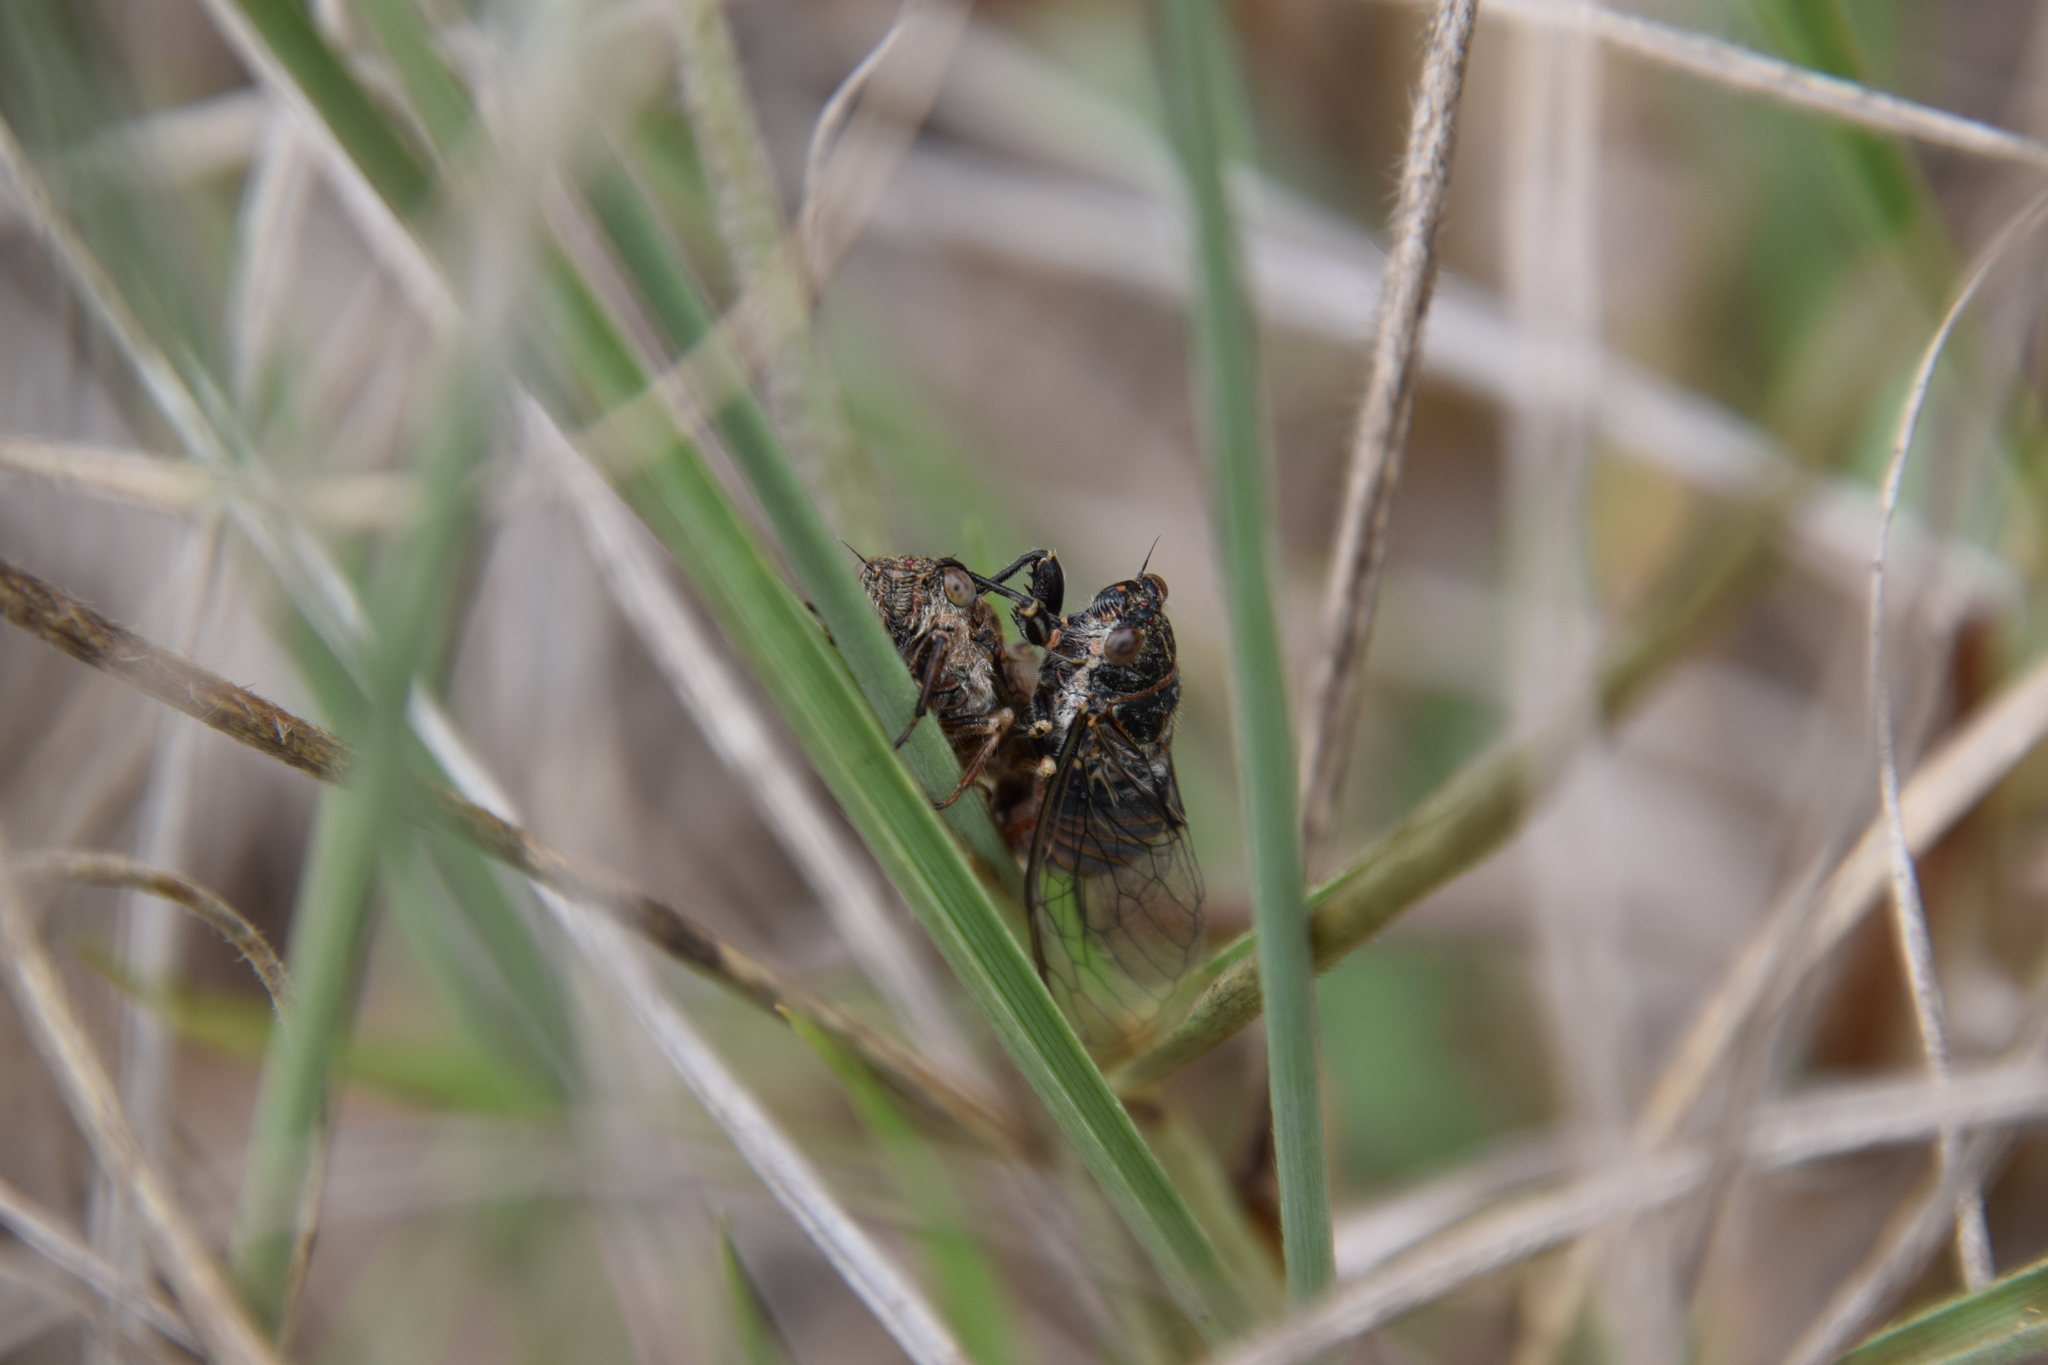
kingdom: Animalia
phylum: Arthropoda
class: Insecta
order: Hemiptera
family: Cicadidae
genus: Haemopsalta
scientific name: Haemopsalta aktites
